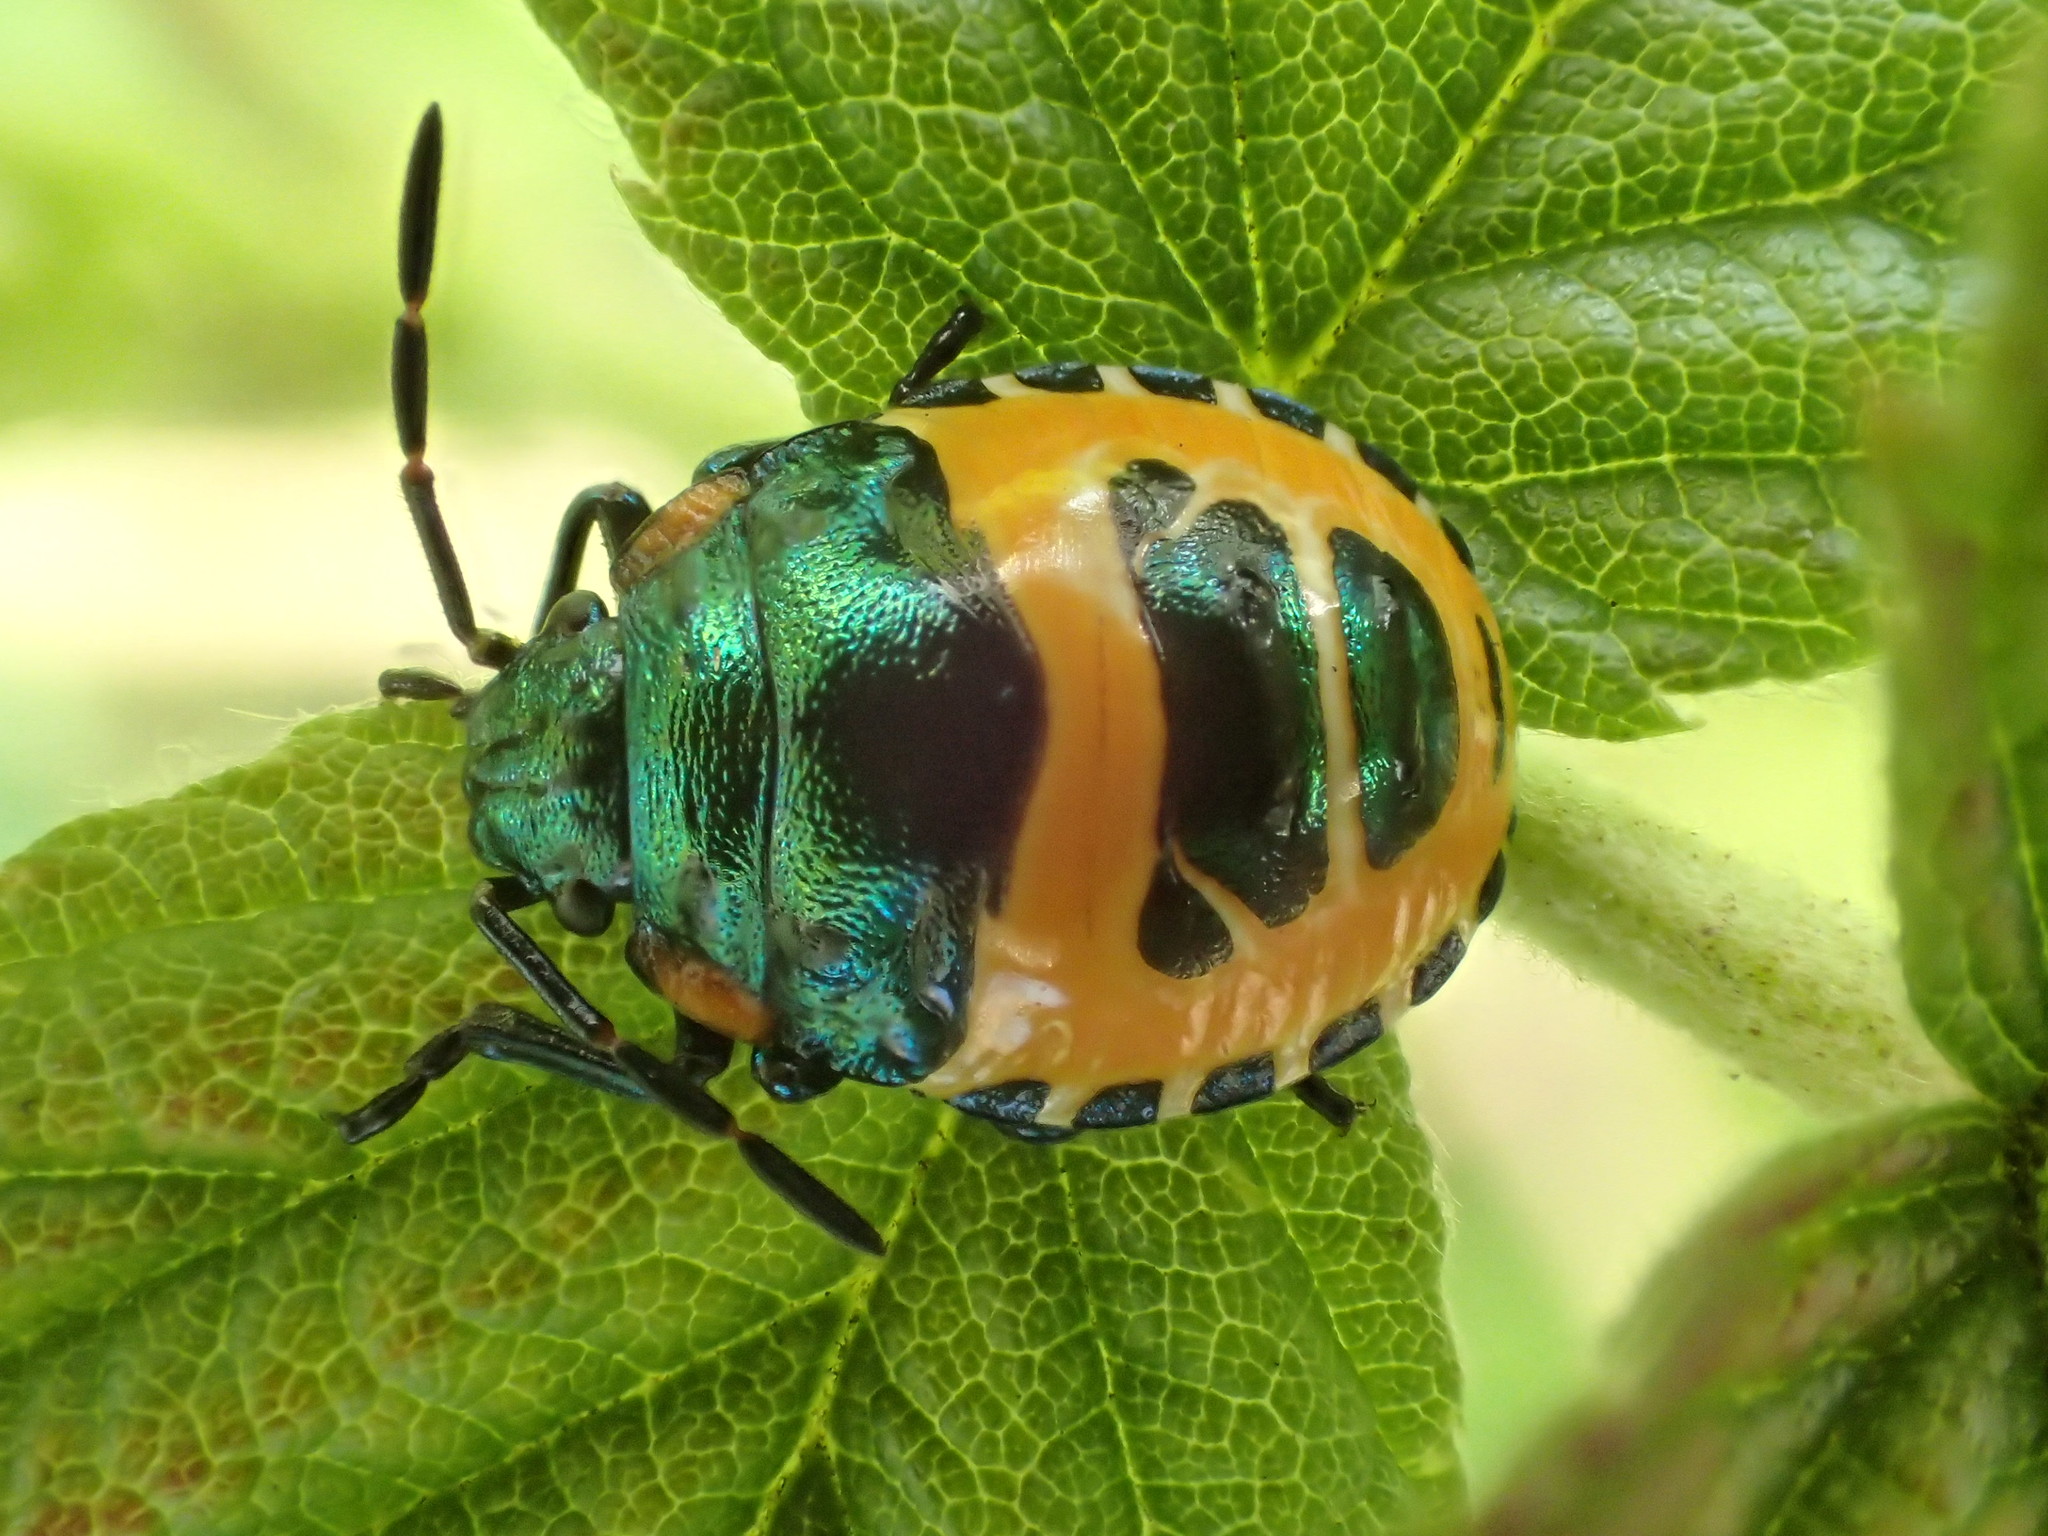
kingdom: Animalia
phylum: Arthropoda
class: Insecta
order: Hemiptera
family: Scutelleridae
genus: Scutiphora
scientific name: Scutiphora pedicellata
